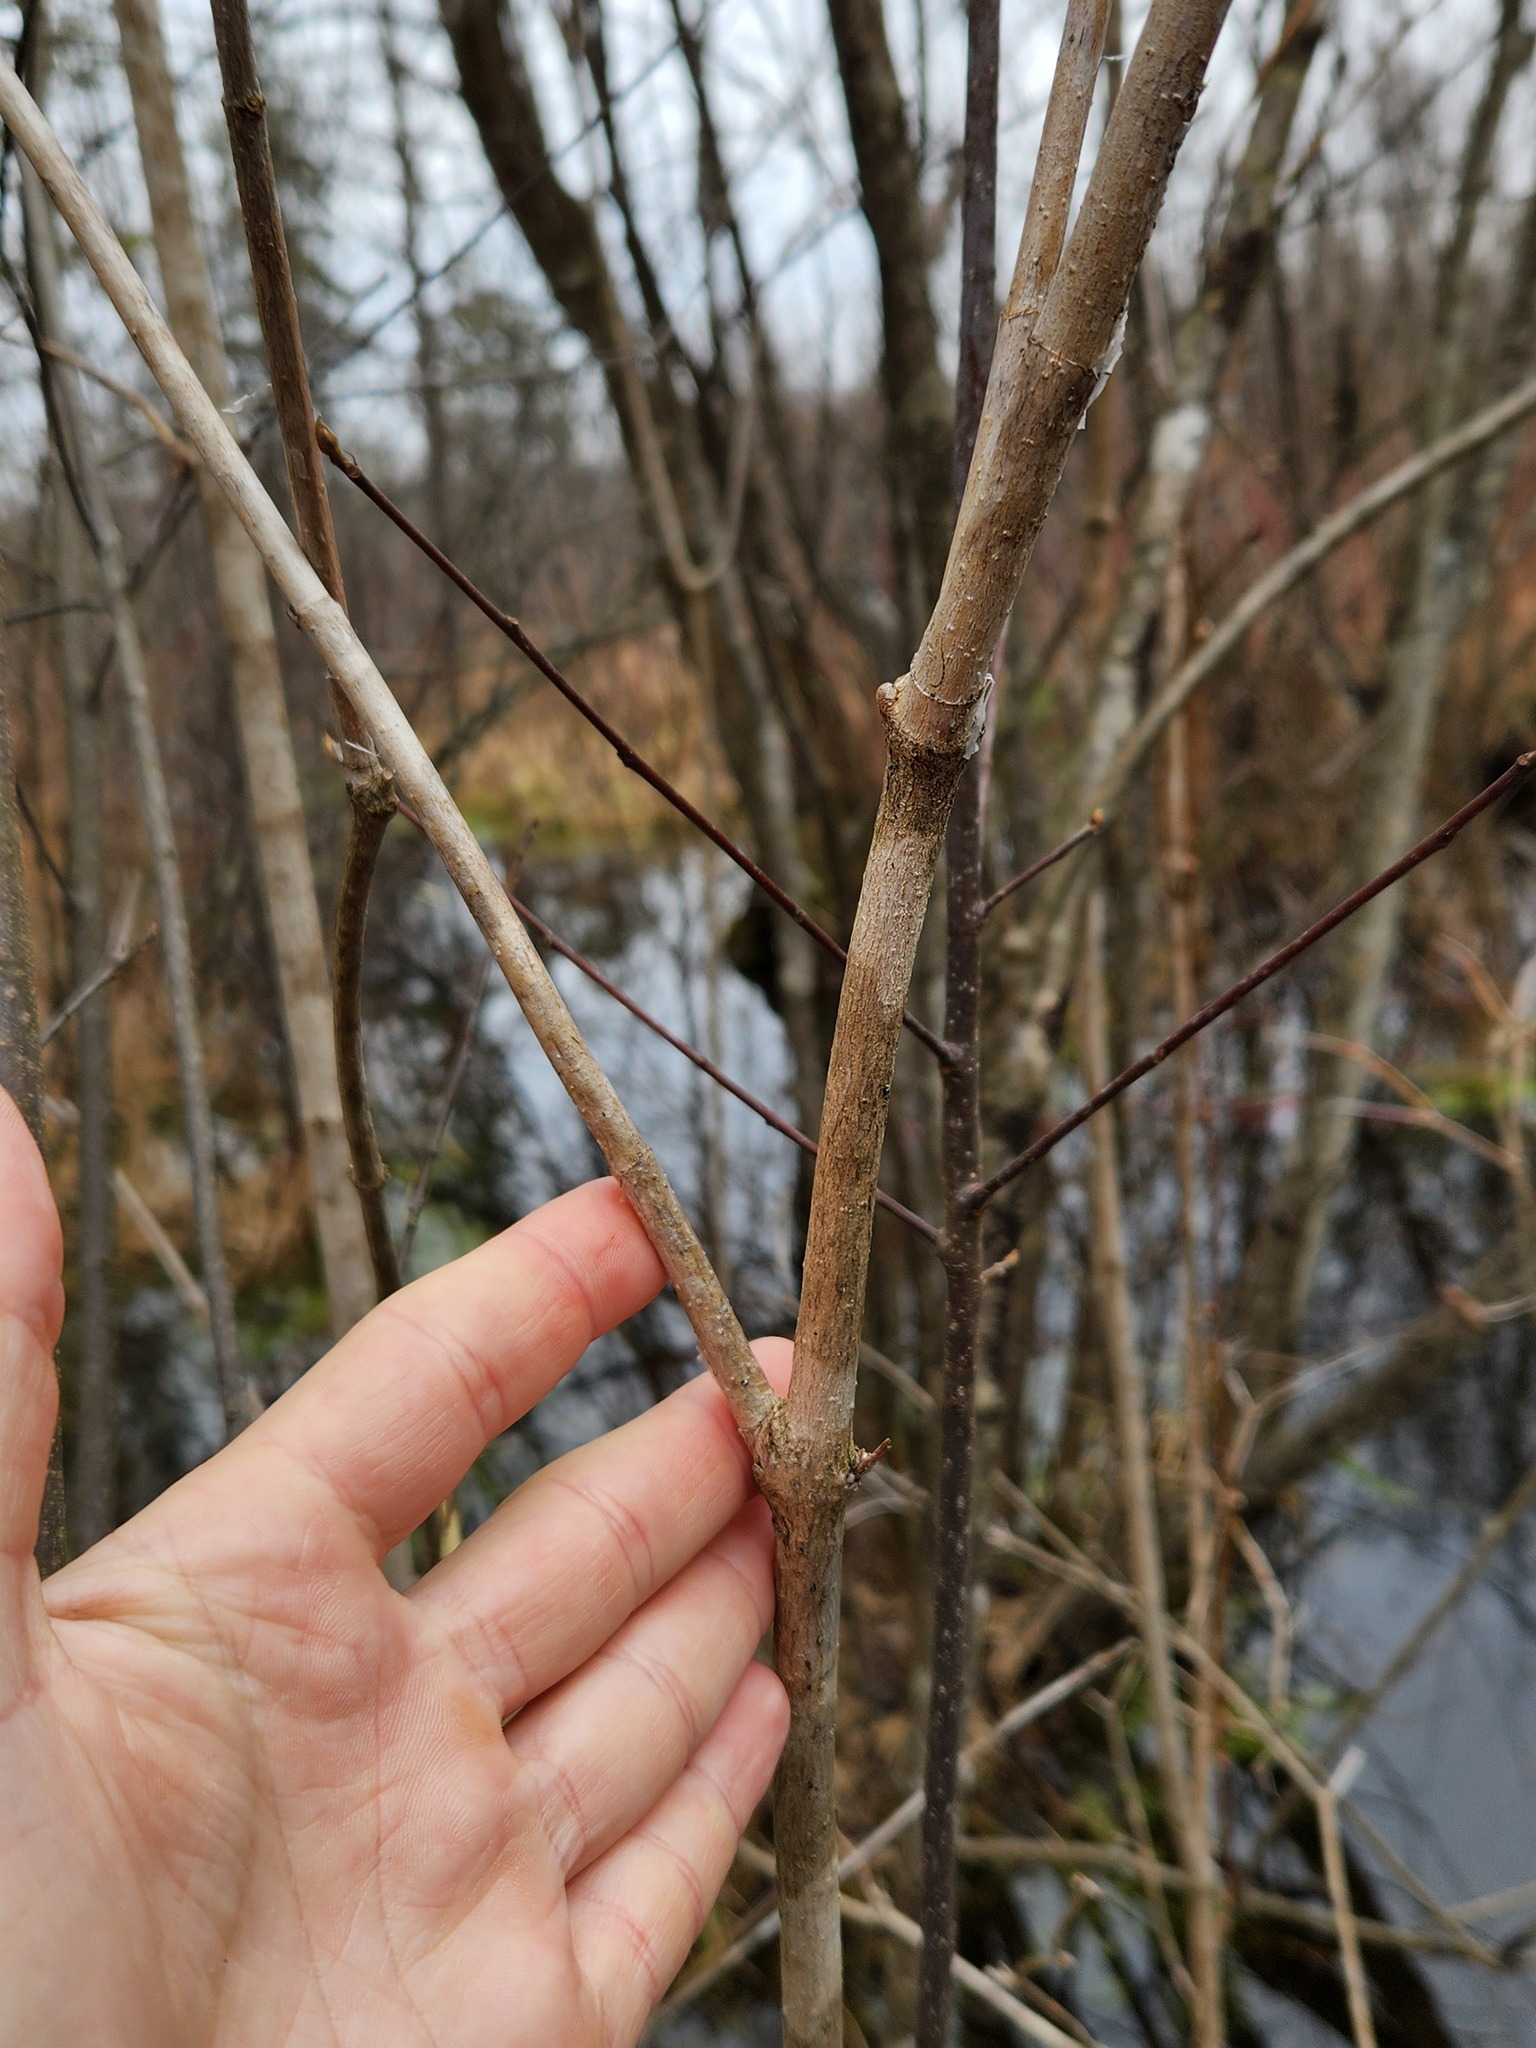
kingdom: Plantae
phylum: Tracheophyta
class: Magnoliopsida
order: Dipsacales
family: Viburnaceae
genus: Viburnum
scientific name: Viburnum opulus
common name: Guelder-rose
